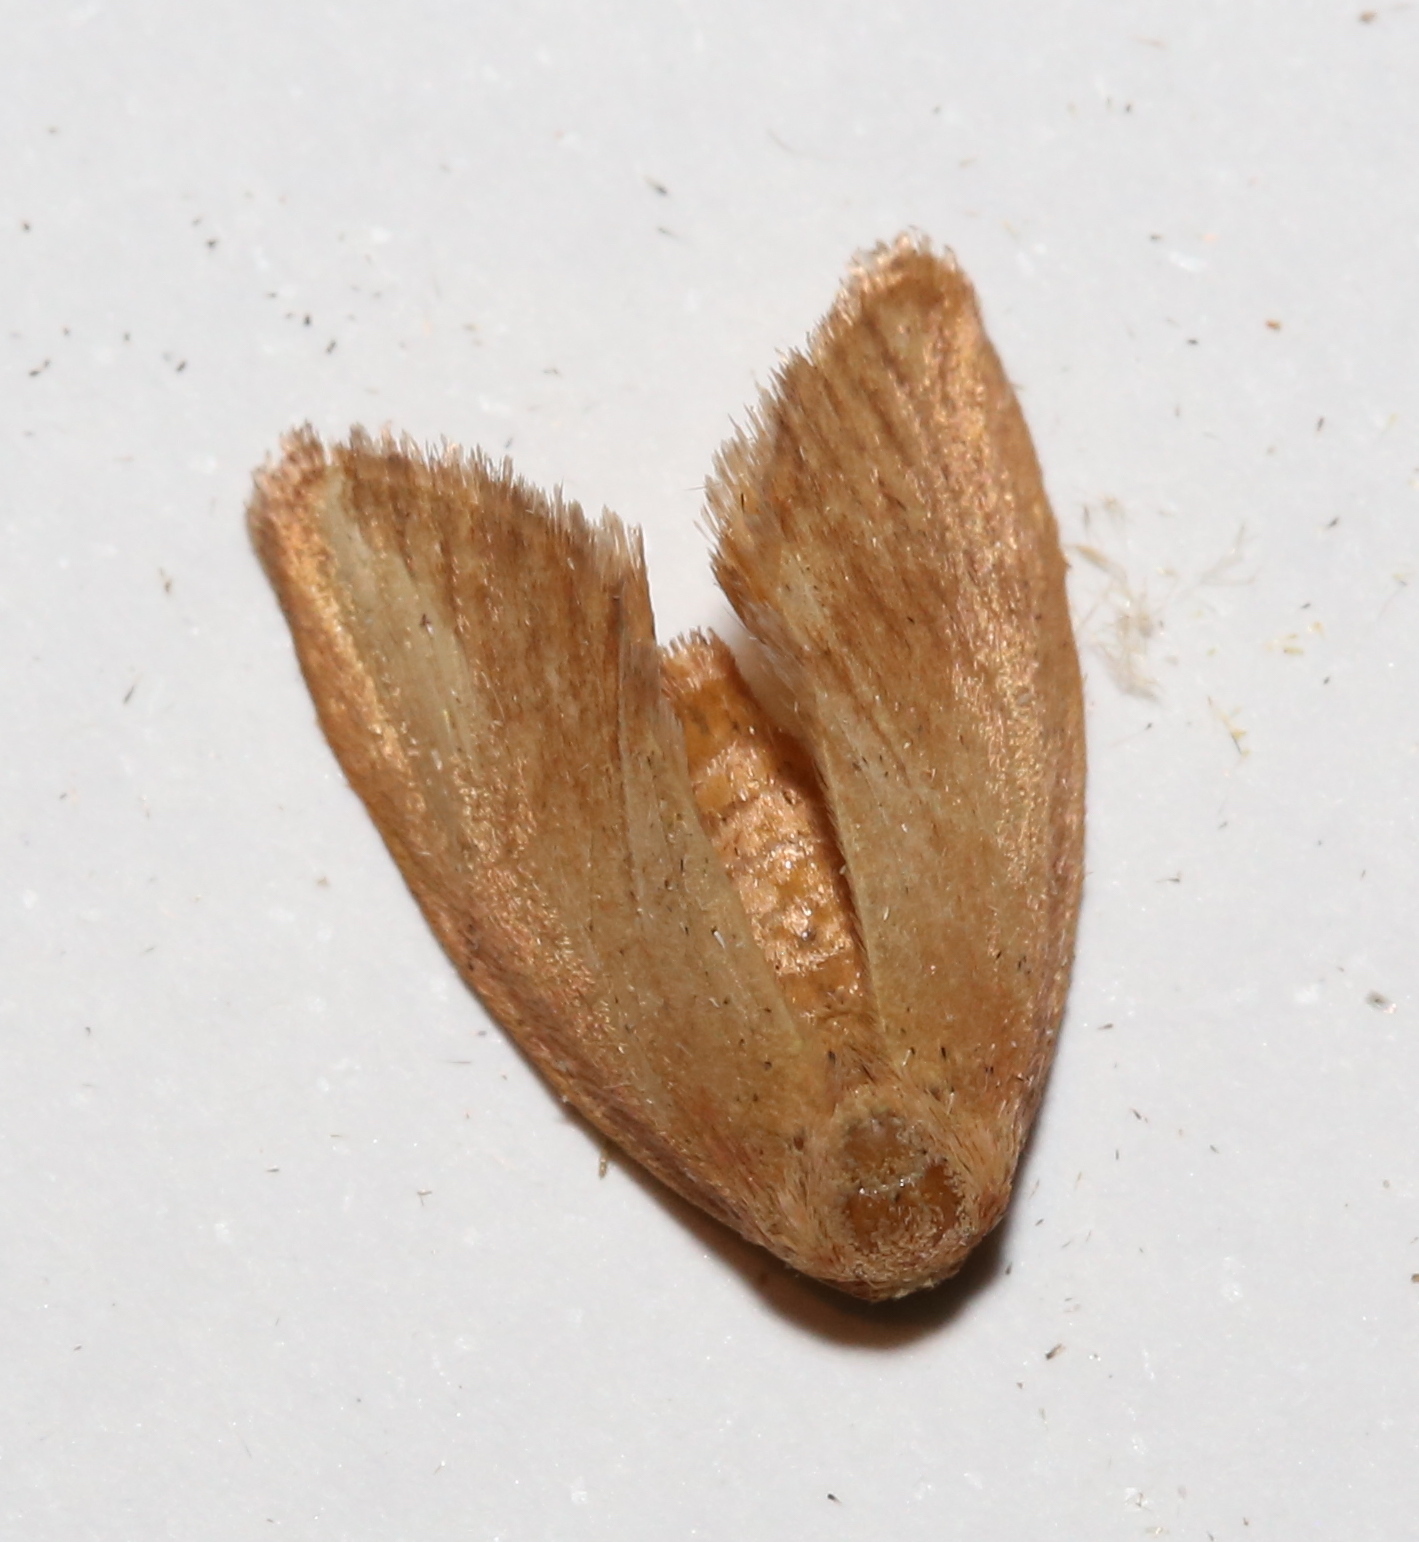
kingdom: Animalia
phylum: Arthropoda
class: Insecta
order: Lepidoptera
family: Limacodidae
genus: Tortricidia
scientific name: Tortricidia pallida
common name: Red-crossed button slug moth
